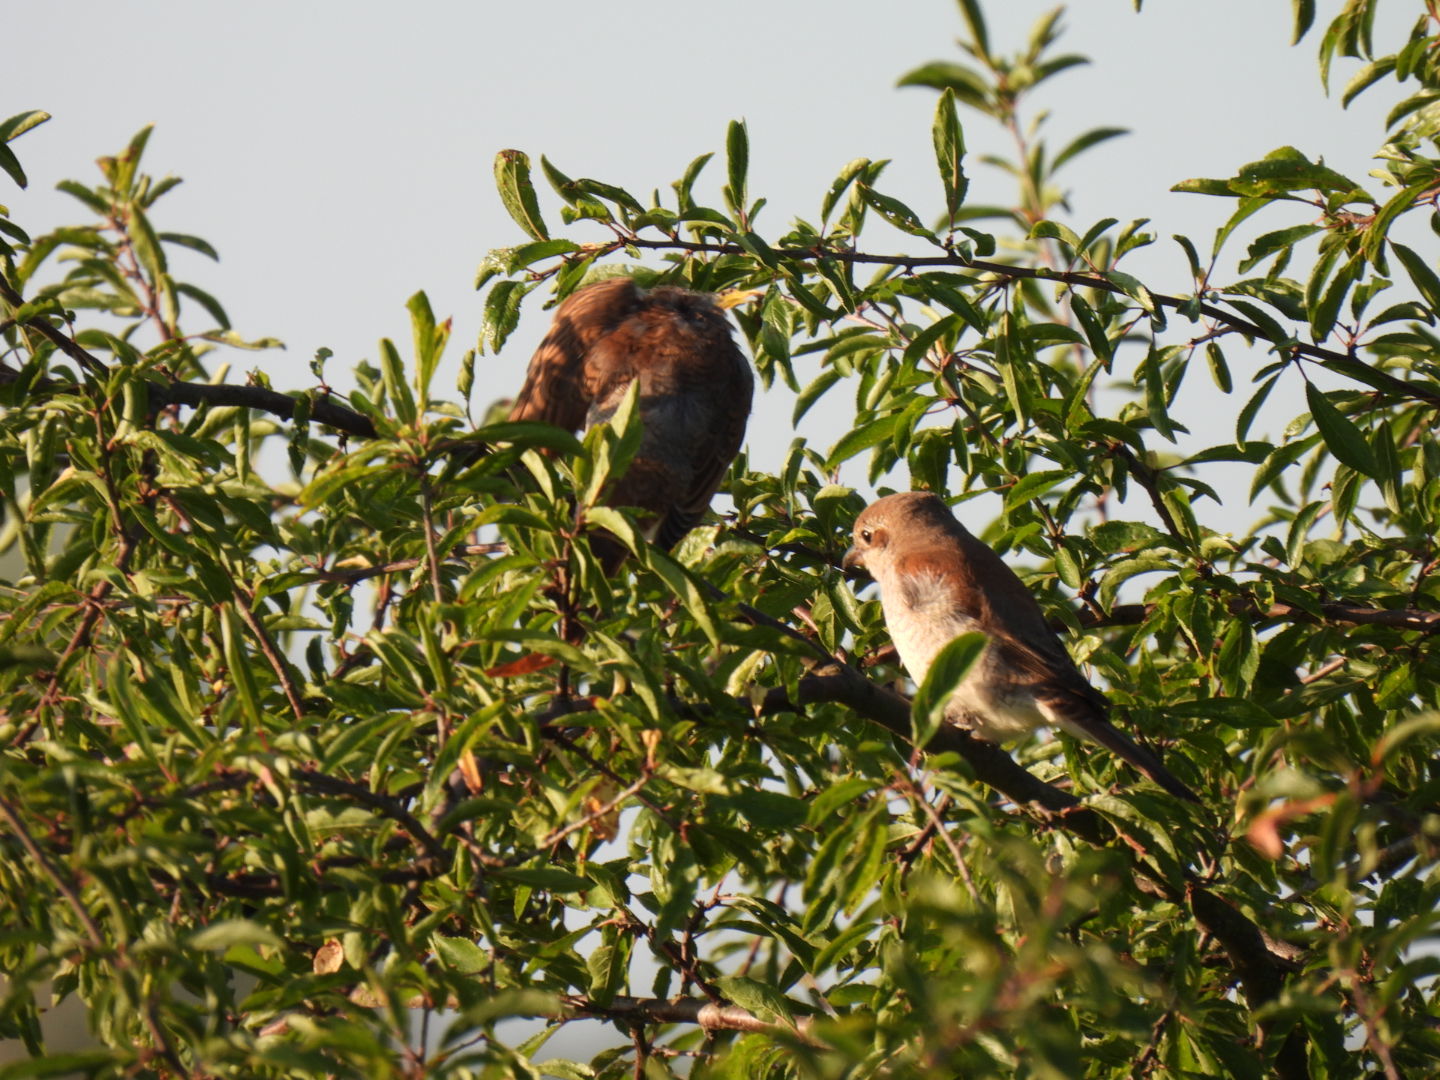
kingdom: Animalia
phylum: Chordata
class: Aves
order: Passeriformes
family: Laniidae
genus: Lanius
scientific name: Lanius collurio
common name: Red-backed shrike
